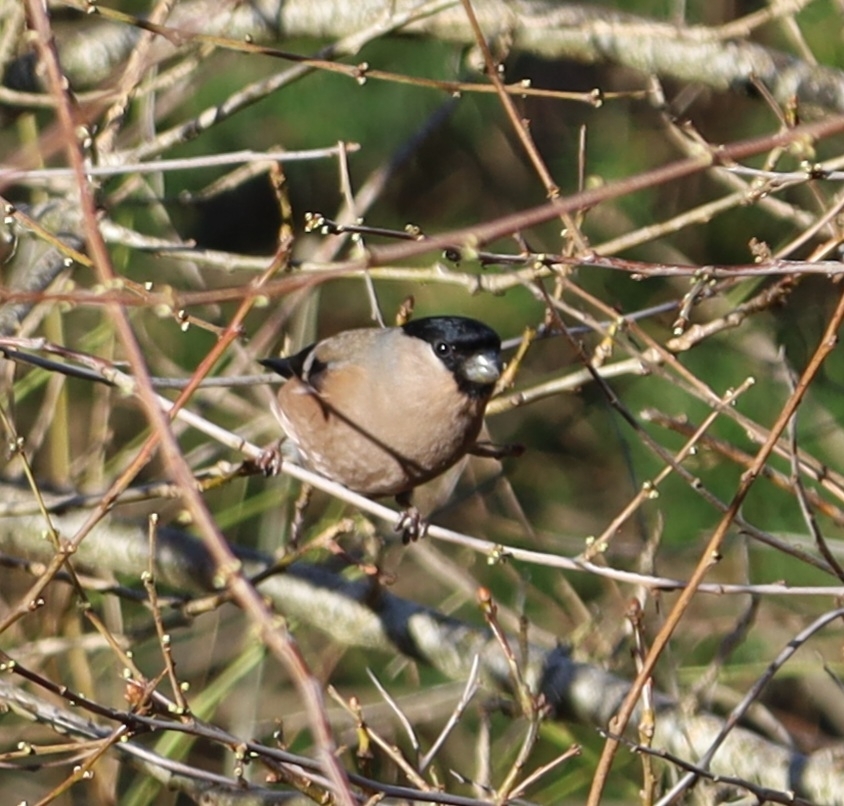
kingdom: Animalia
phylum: Chordata
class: Aves
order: Passeriformes
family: Fringillidae
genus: Pyrrhula
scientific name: Pyrrhula pyrrhula
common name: Eurasian bullfinch
